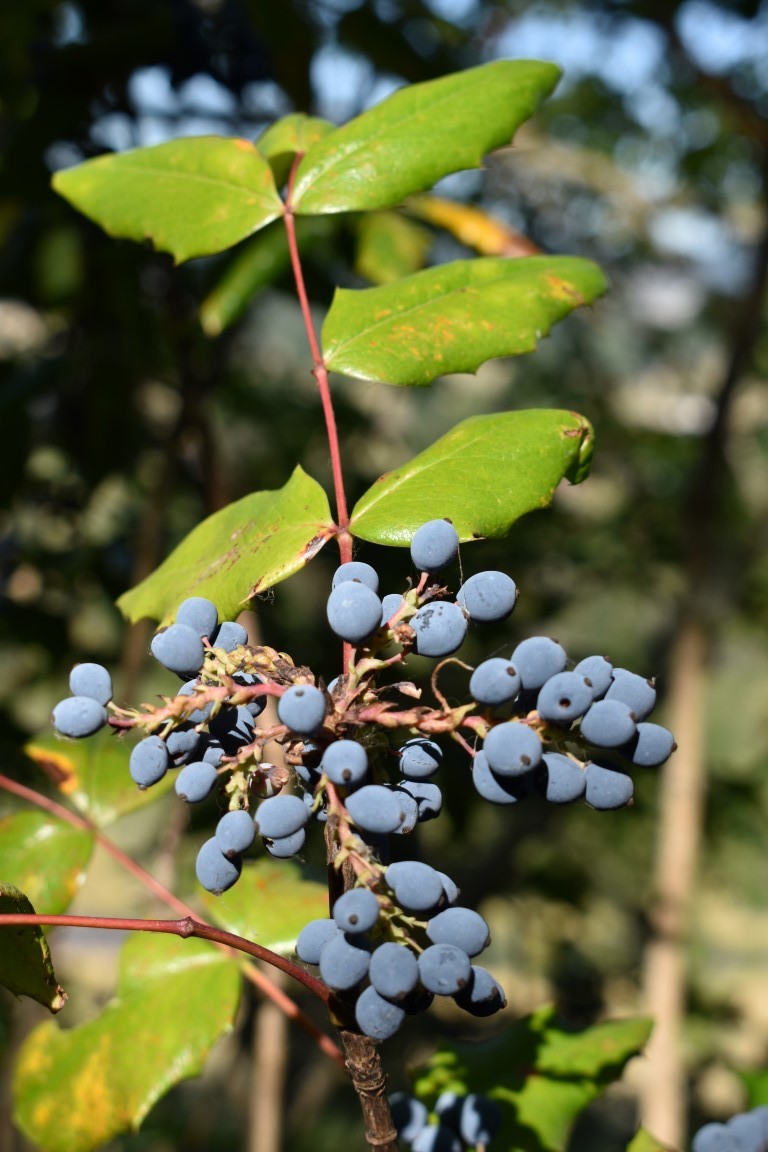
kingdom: Plantae
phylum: Tracheophyta
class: Magnoliopsida
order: Ranunculales
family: Berberidaceae
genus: Mahonia
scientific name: Mahonia aquifolium
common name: Oregon-grape
